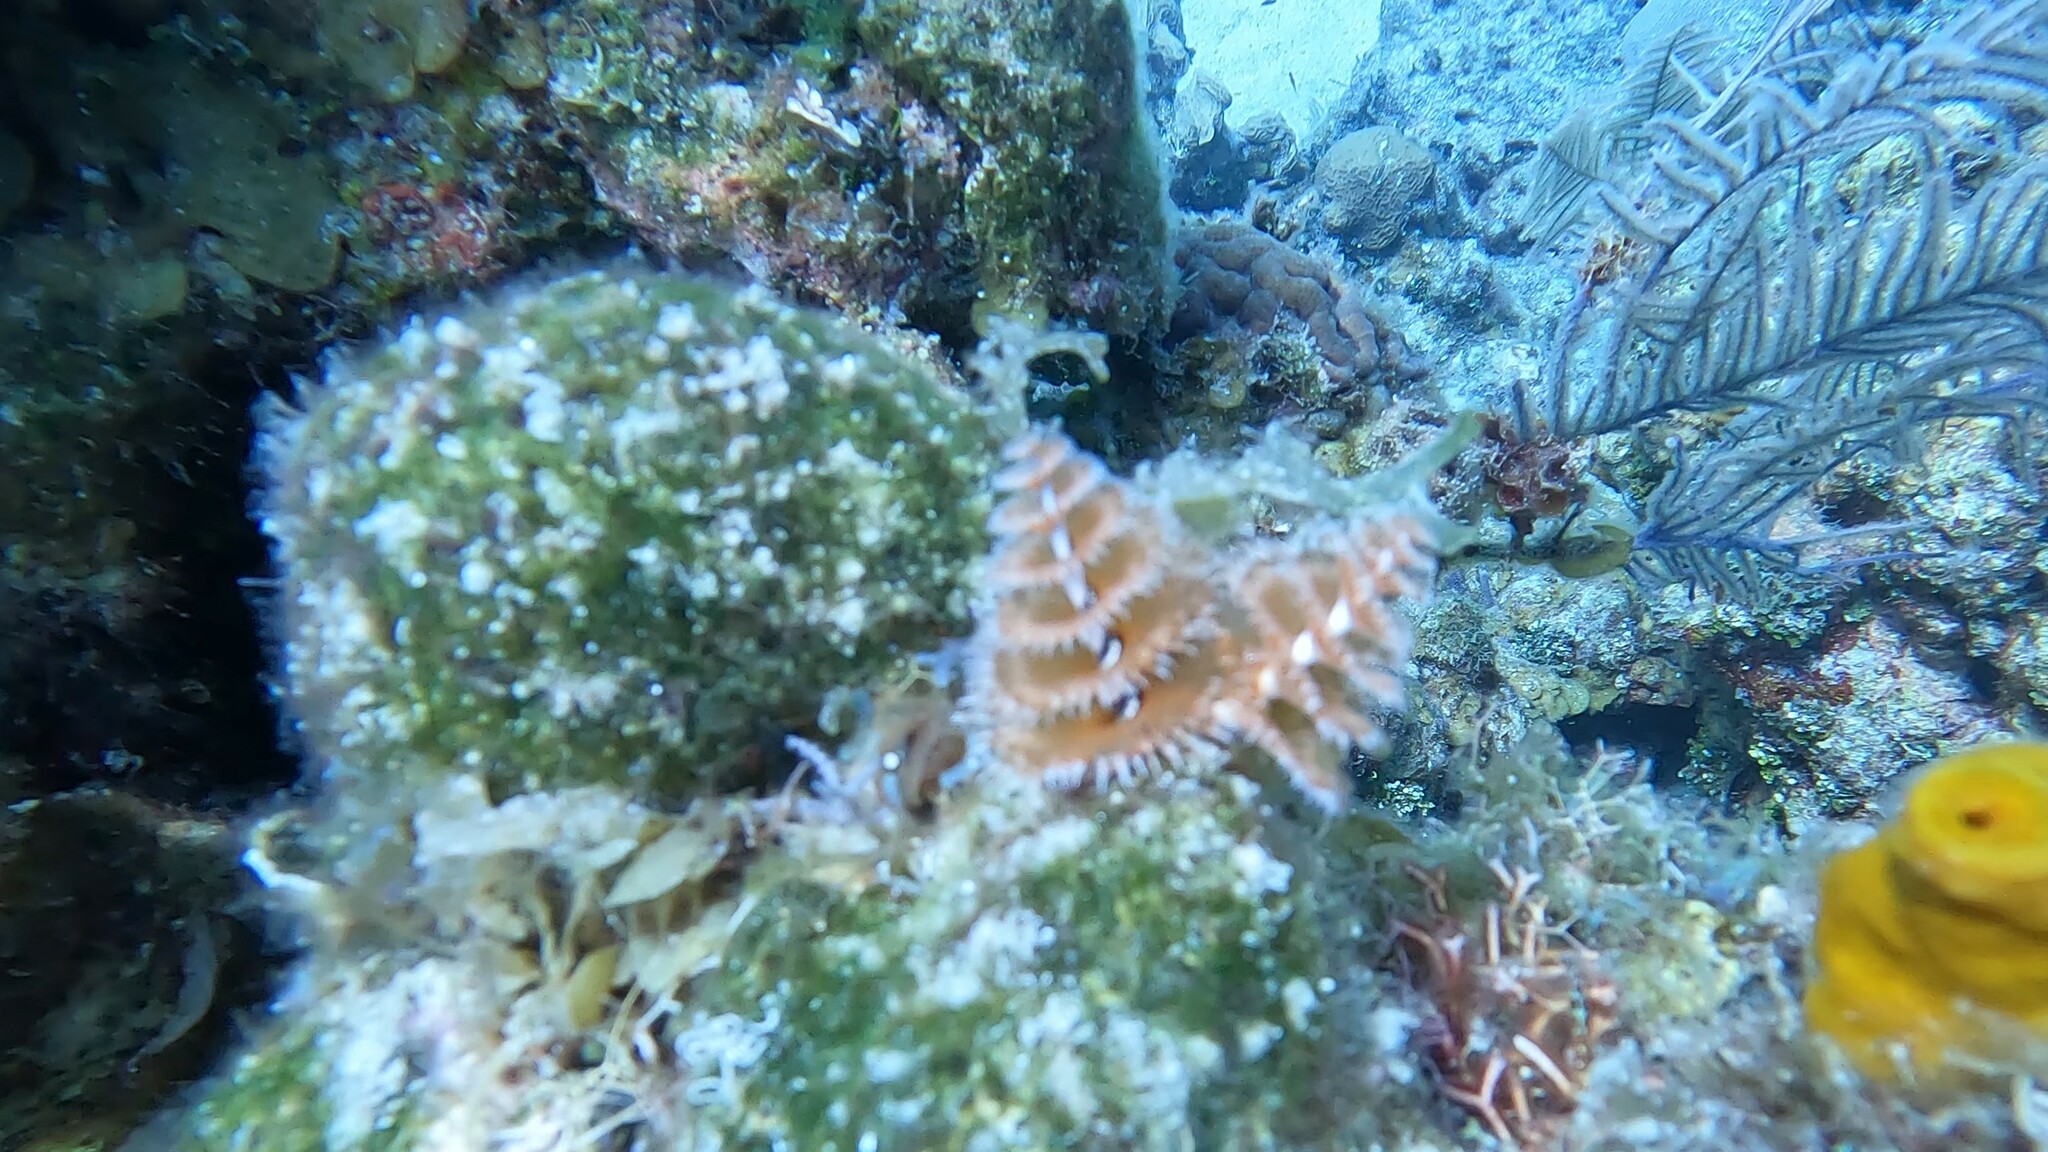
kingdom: Animalia
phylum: Annelida
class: Polychaeta
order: Sabellida
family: Serpulidae
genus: Spirobranchus
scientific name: Spirobranchus giganteus
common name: Christmas tree worm
